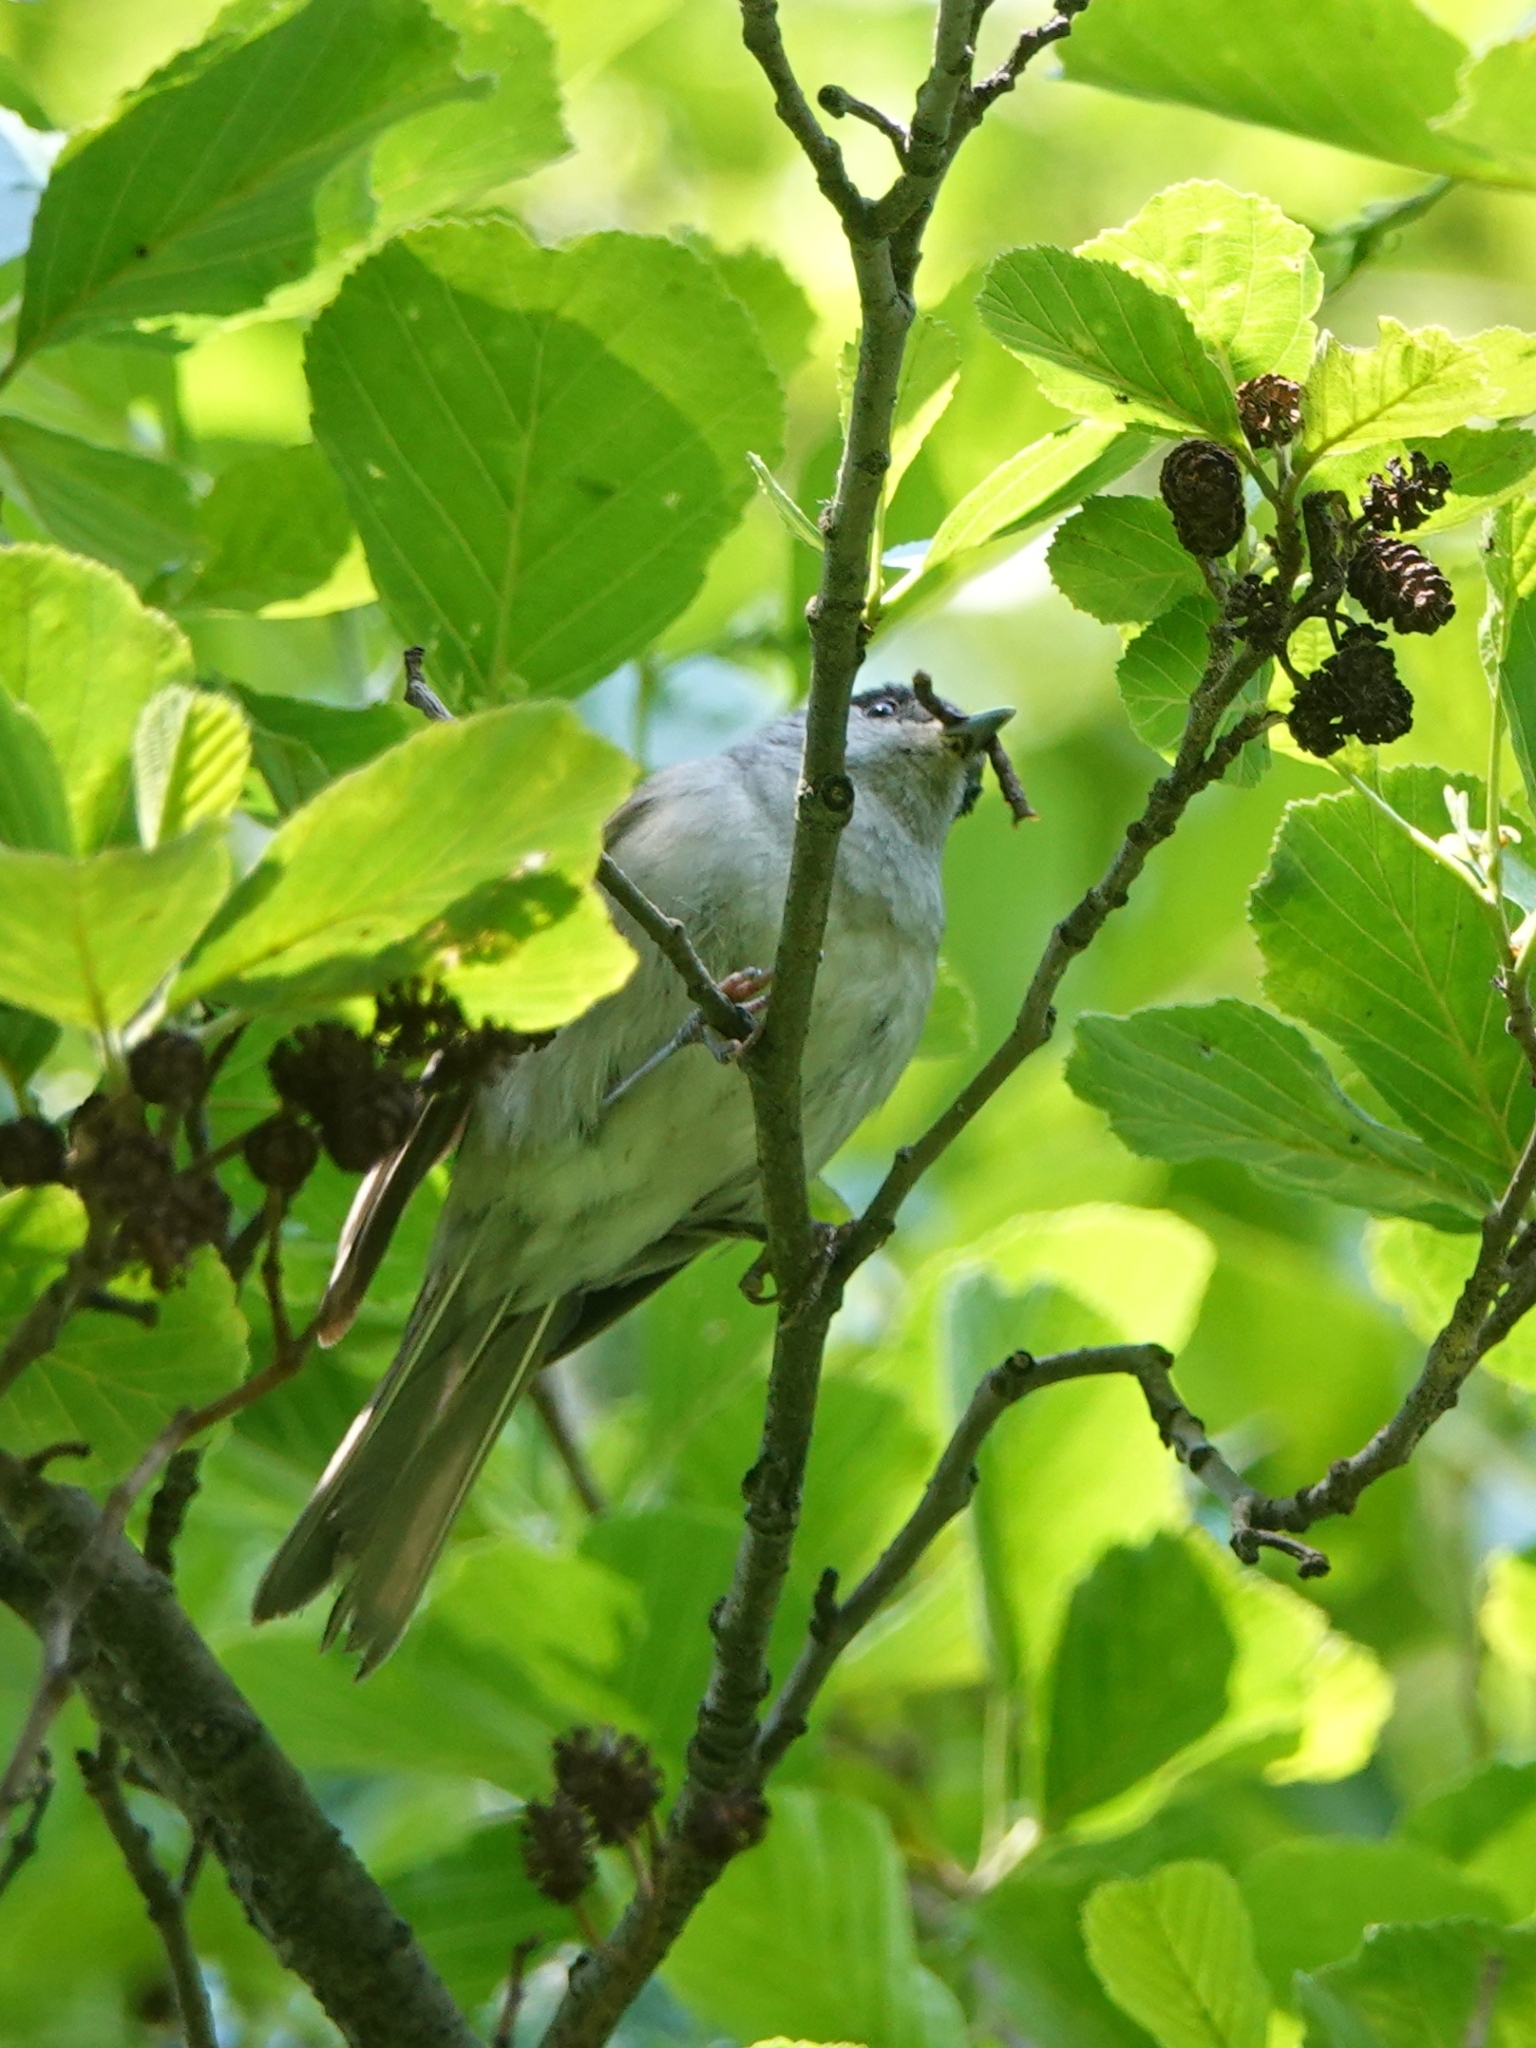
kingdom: Animalia
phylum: Chordata
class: Aves
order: Passeriformes
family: Sylviidae
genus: Sylvia
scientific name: Sylvia atricapilla
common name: Eurasian blackcap
